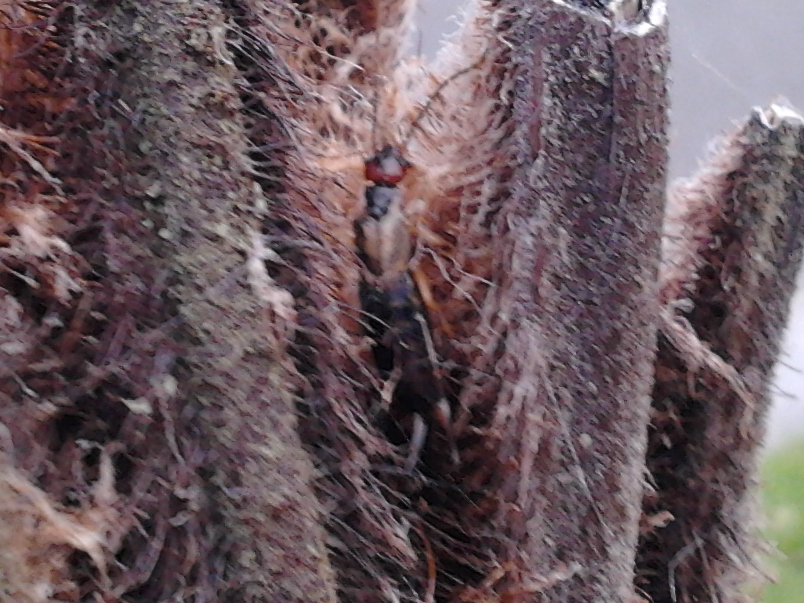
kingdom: Animalia
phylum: Arthropoda
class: Insecta
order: Dermaptera
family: Forficulidae
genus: Forficula
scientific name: Forficula
